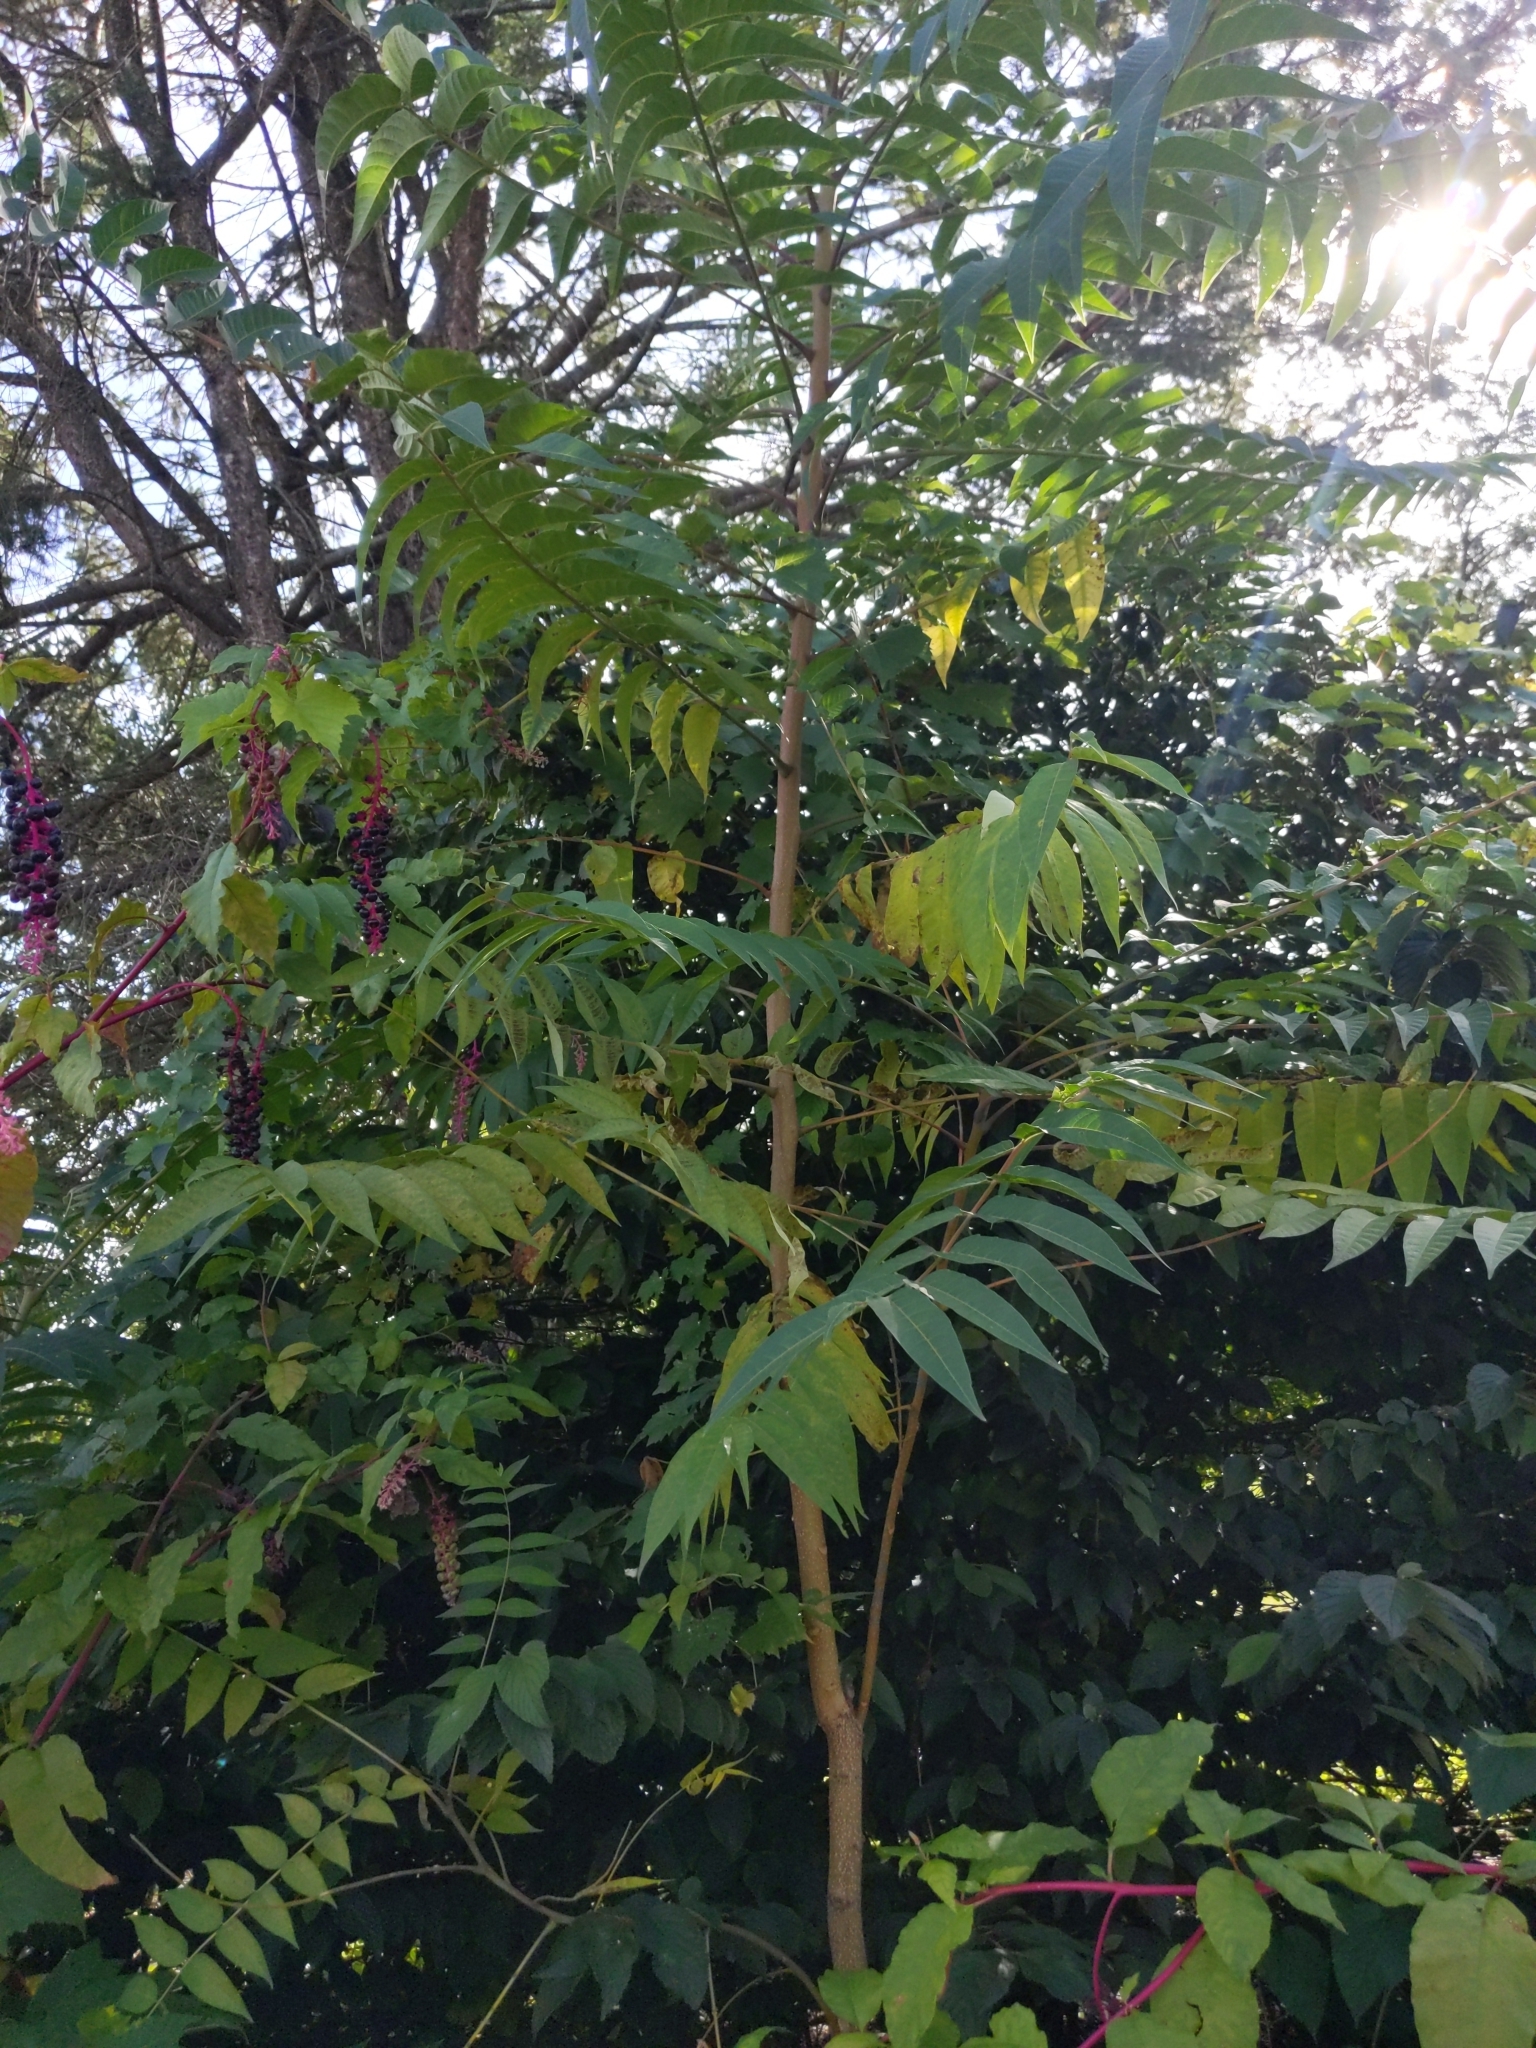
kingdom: Plantae
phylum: Tracheophyta
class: Magnoliopsida
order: Sapindales
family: Simaroubaceae
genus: Ailanthus
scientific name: Ailanthus altissima
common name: Tree-of-heaven
